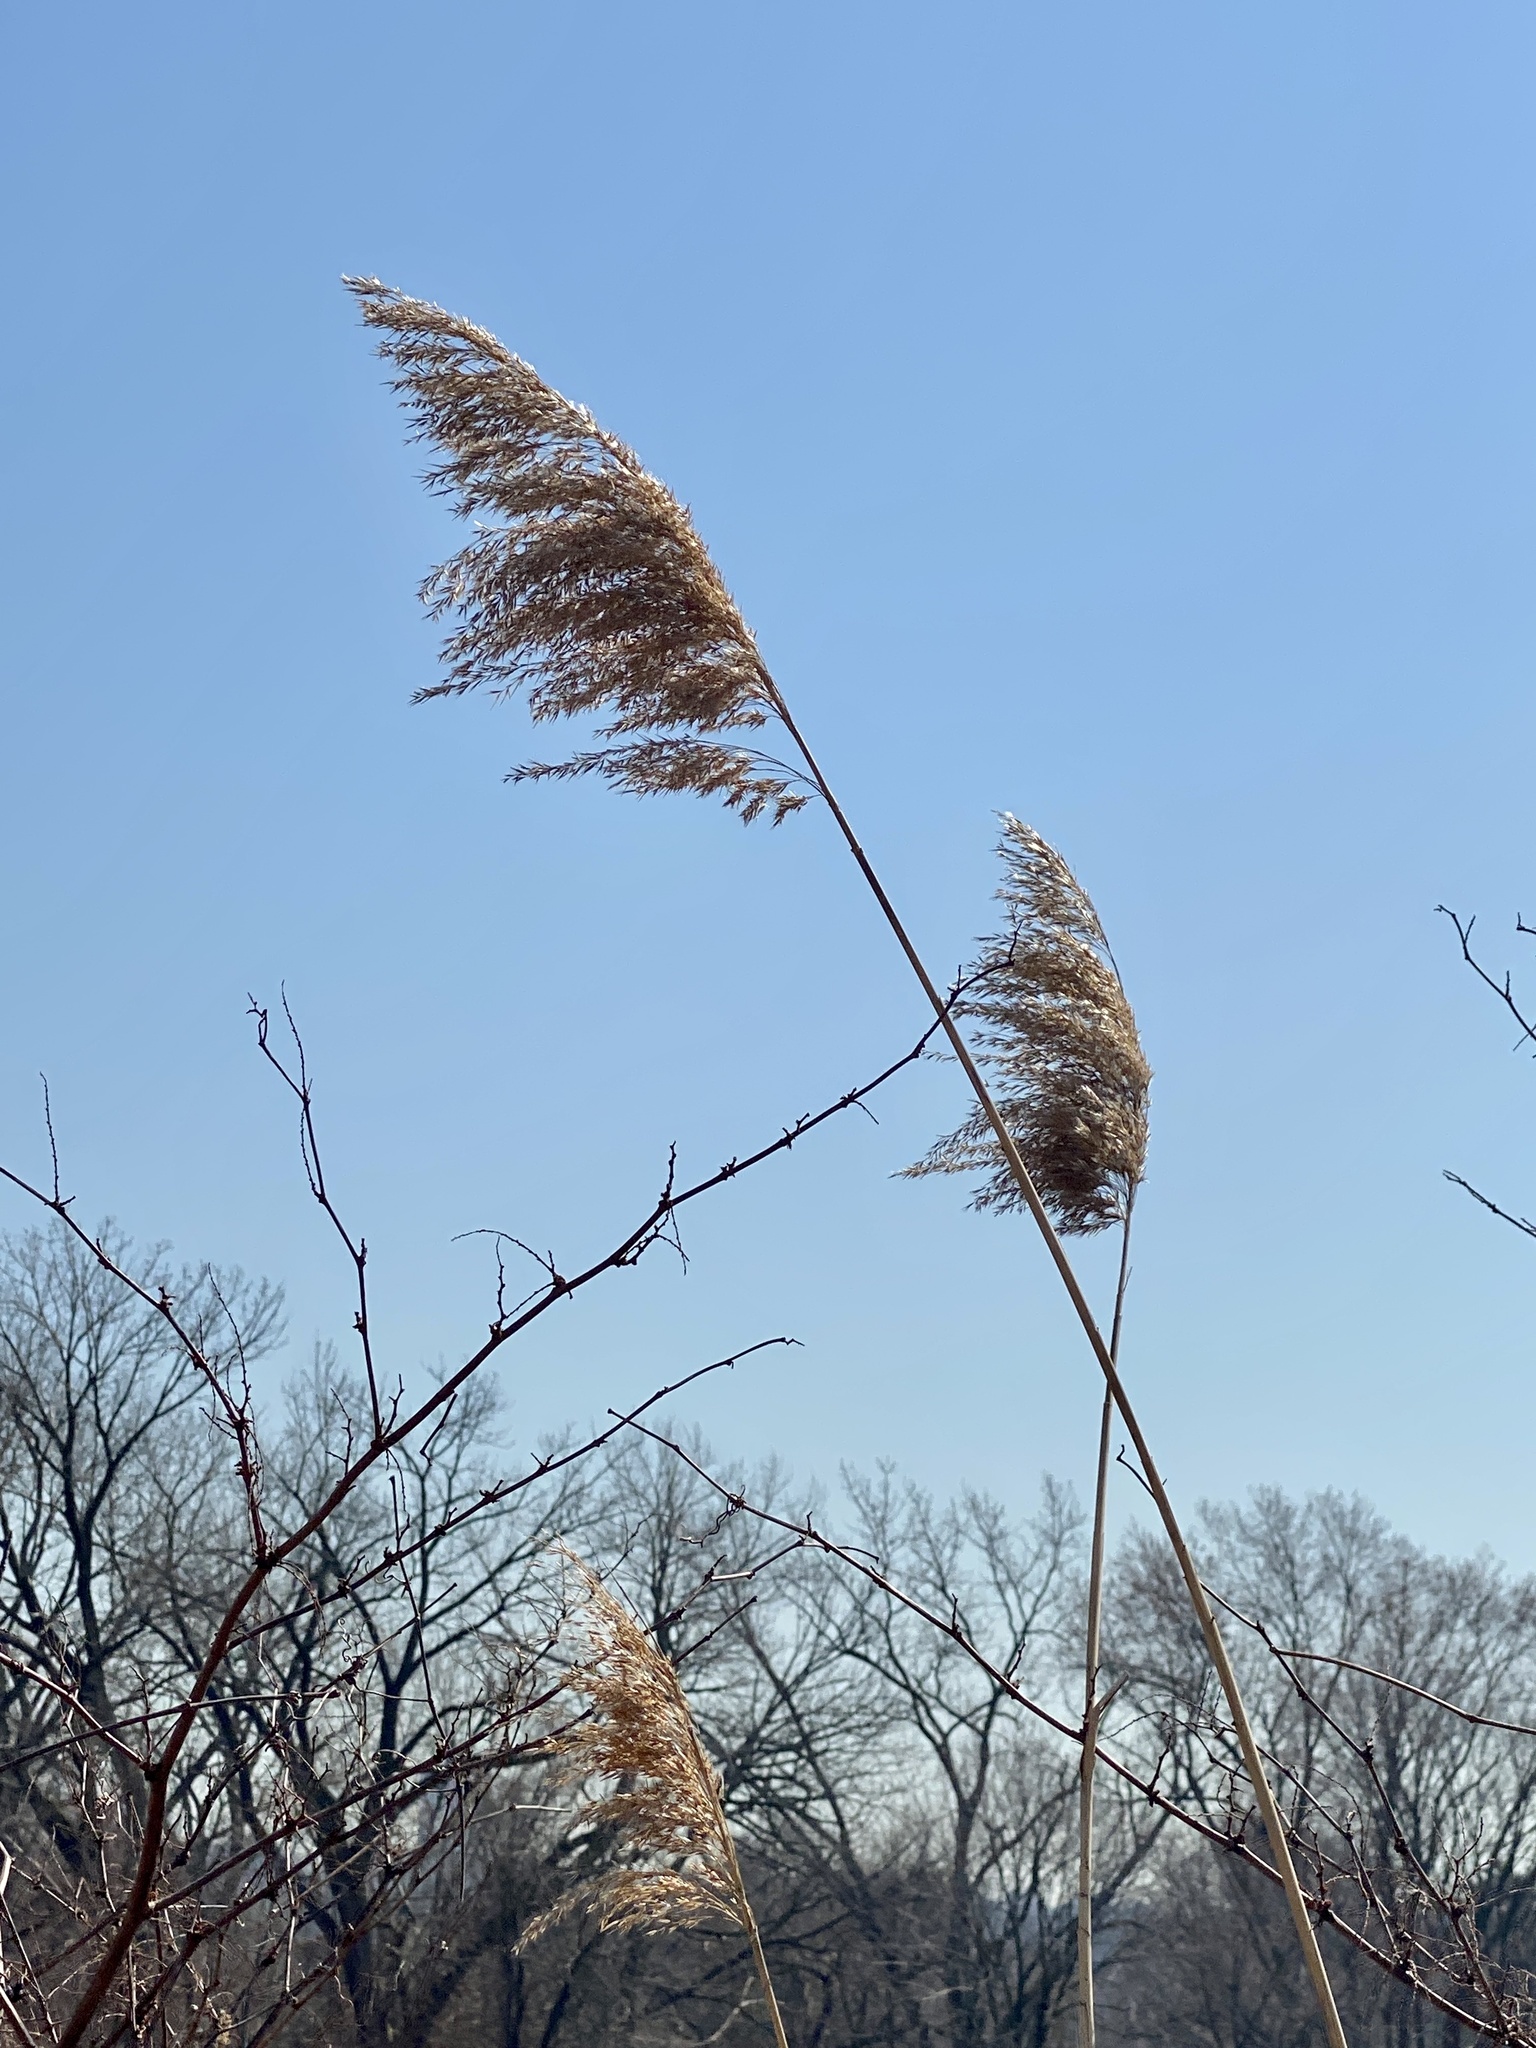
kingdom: Plantae
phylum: Tracheophyta
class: Liliopsida
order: Poales
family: Poaceae
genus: Phragmites
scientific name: Phragmites australis
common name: Common reed
